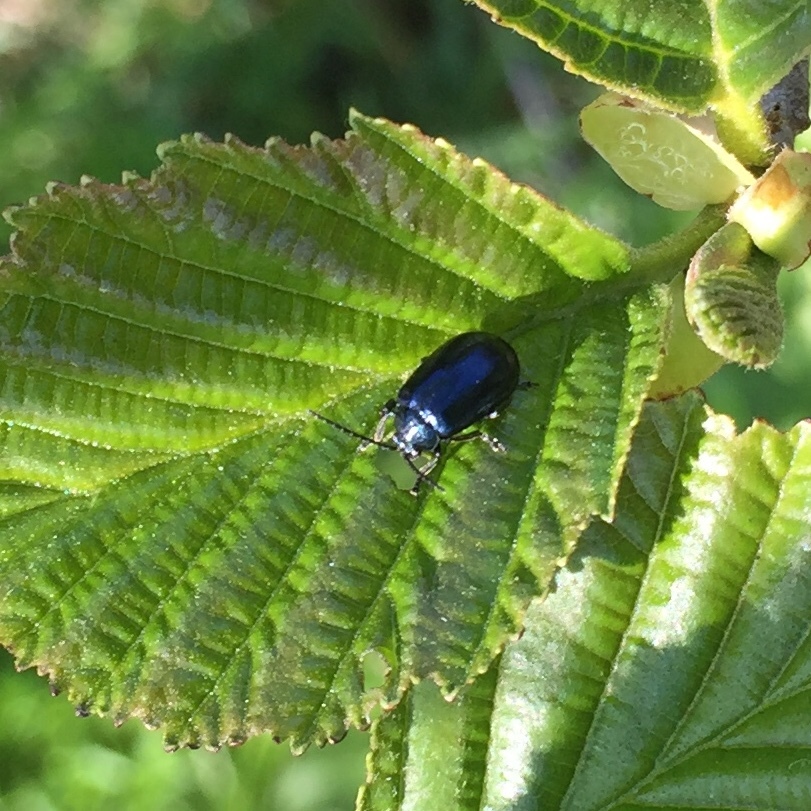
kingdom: Animalia
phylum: Arthropoda
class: Insecta
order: Coleoptera
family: Chrysomelidae
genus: Agelastica
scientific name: Agelastica alni
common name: Alder leaf beetle
